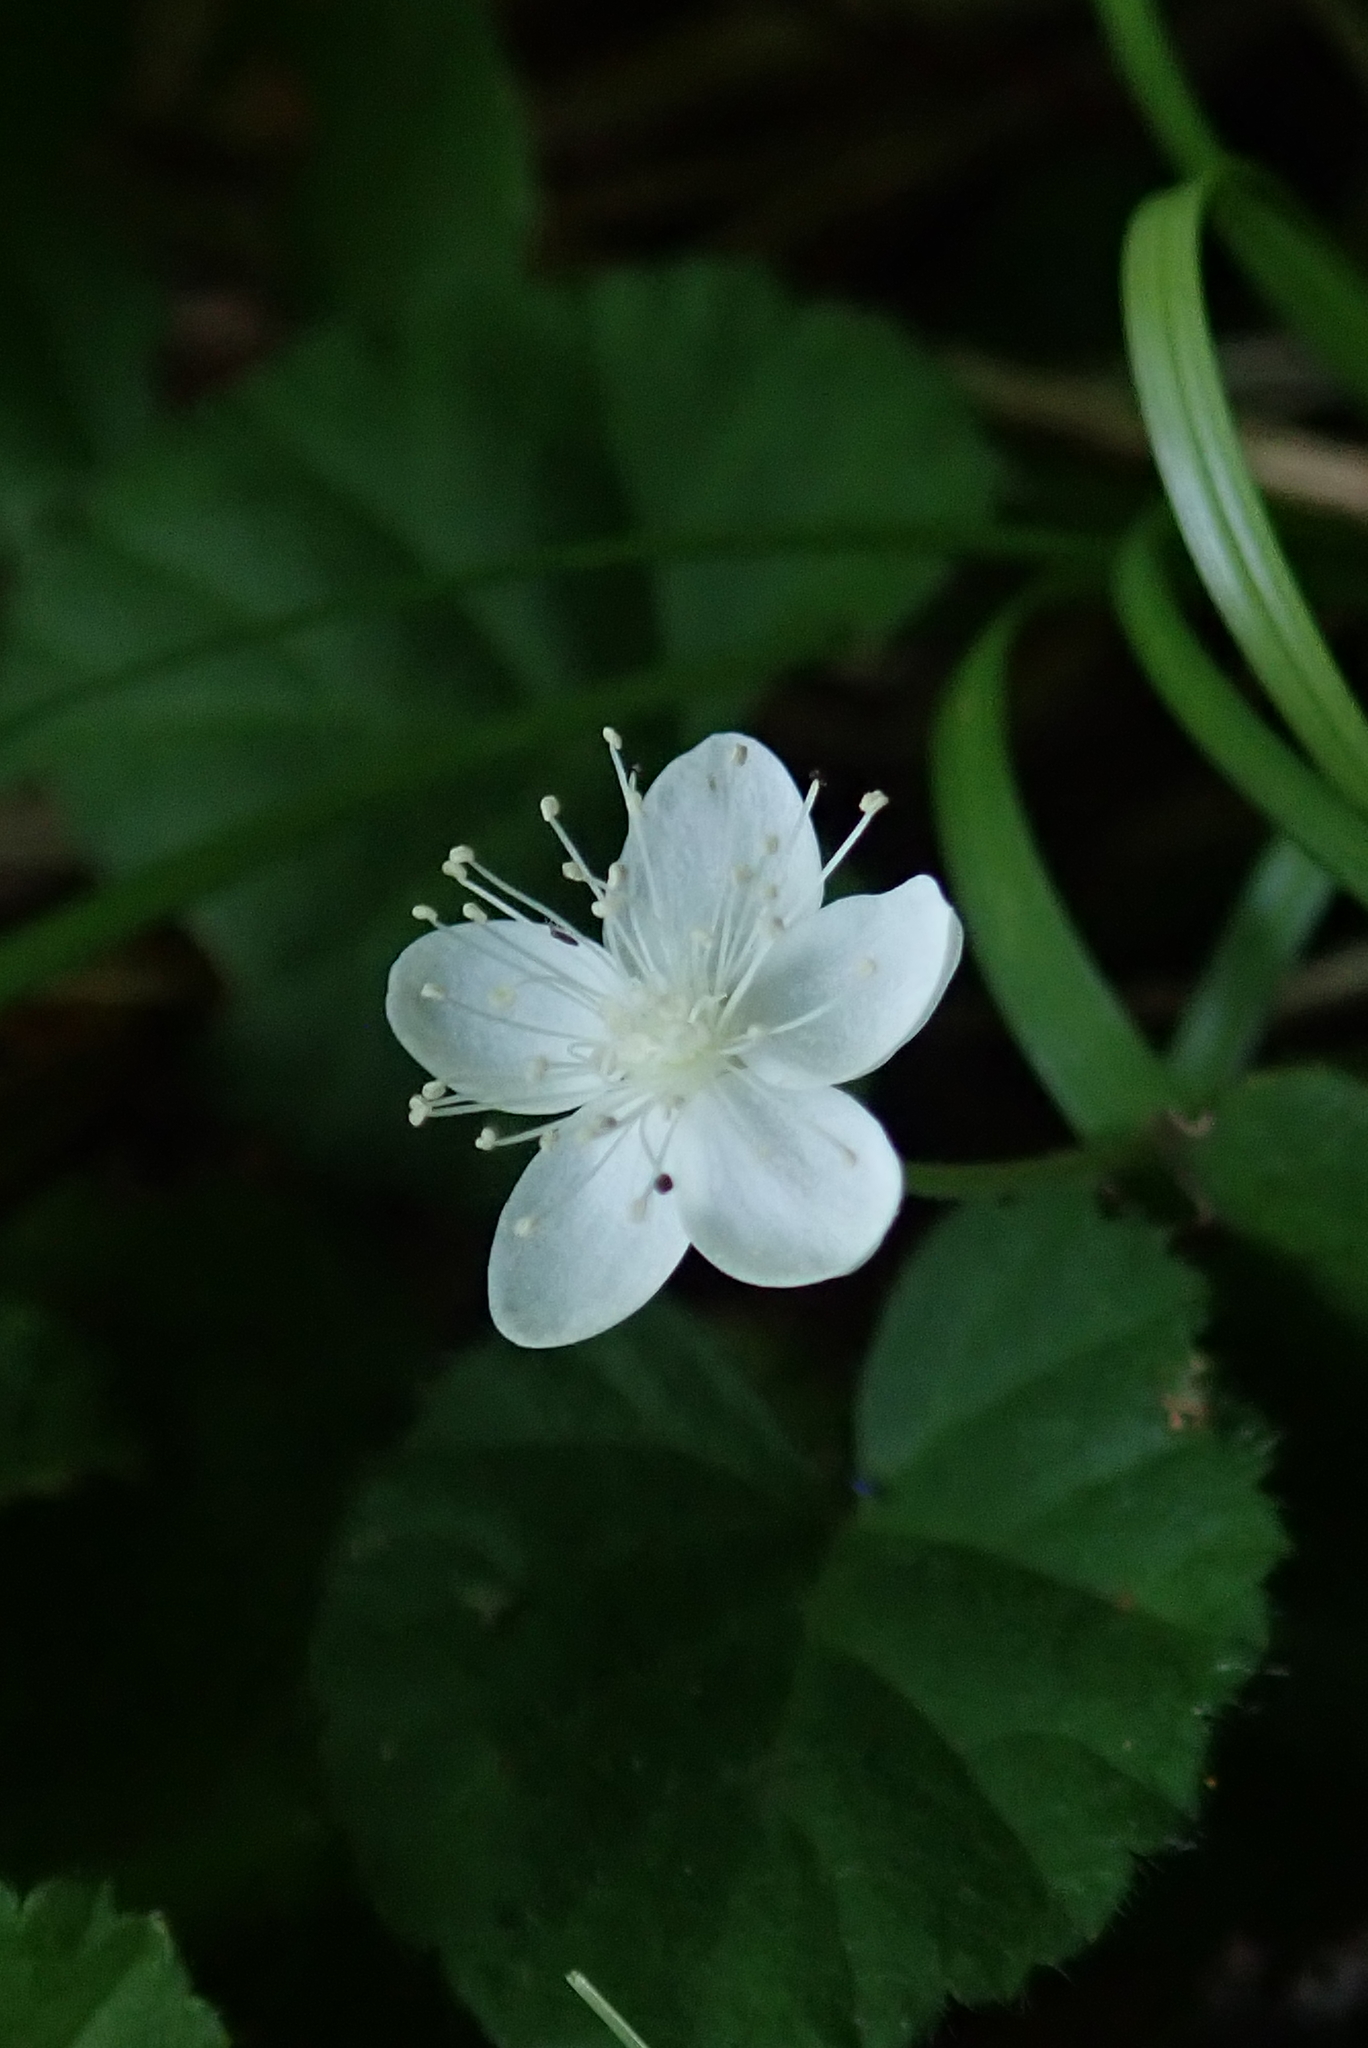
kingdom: Plantae
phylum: Tracheophyta
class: Magnoliopsida
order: Rosales
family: Rosaceae
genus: Dalibarda
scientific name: Dalibarda repens
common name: Dewdrop
